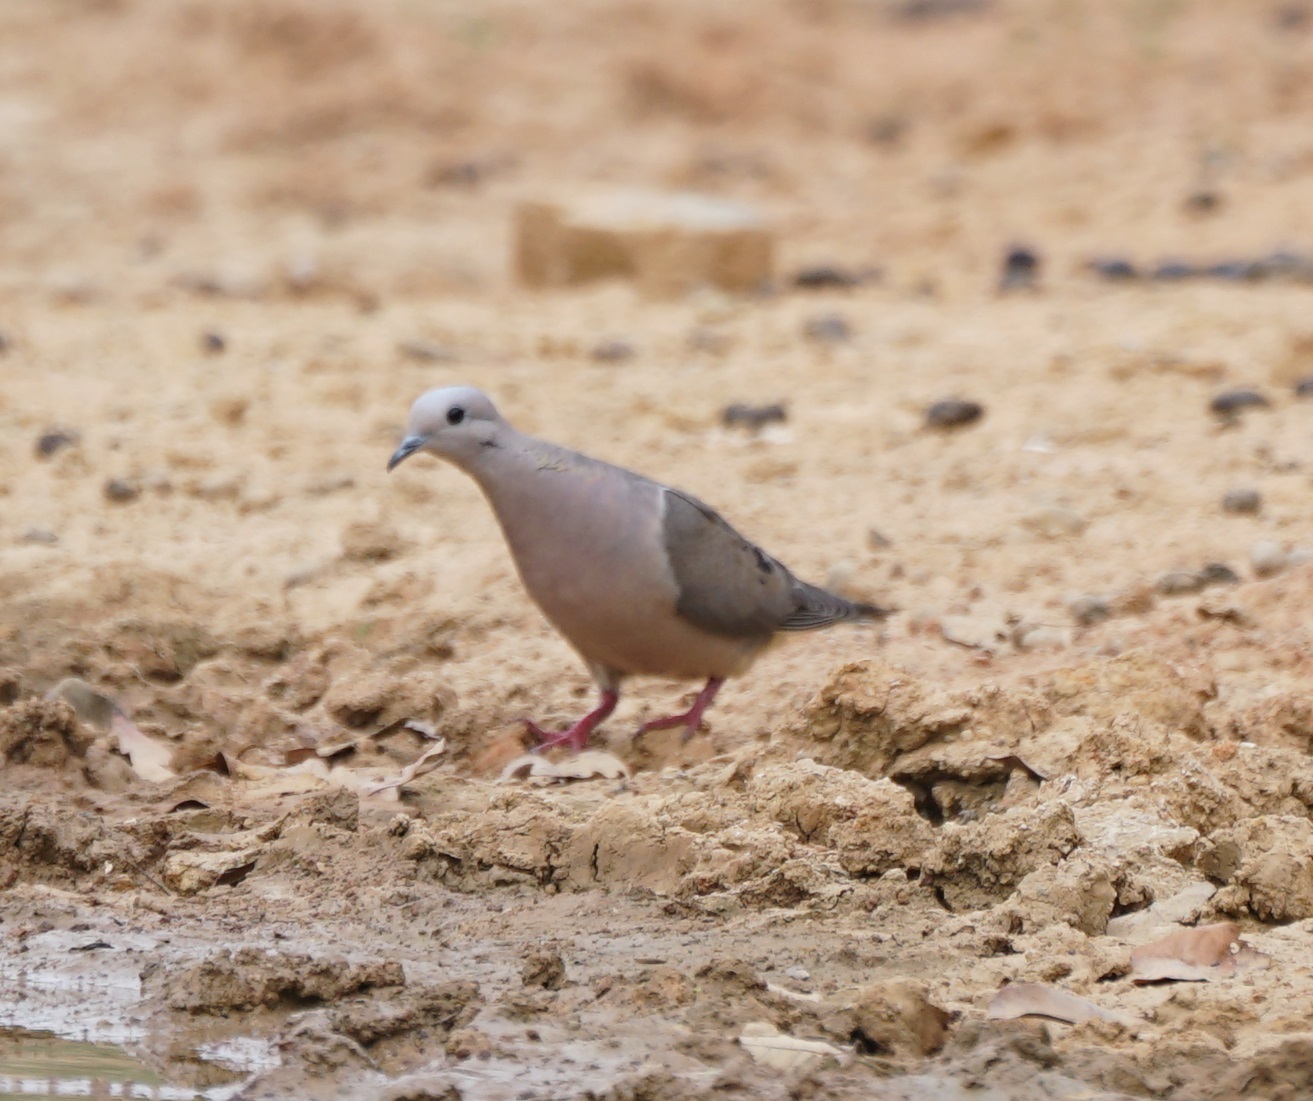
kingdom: Animalia
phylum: Chordata
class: Aves
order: Columbiformes
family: Columbidae
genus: Zenaida
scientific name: Zenaida auriculata
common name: Eared dove
